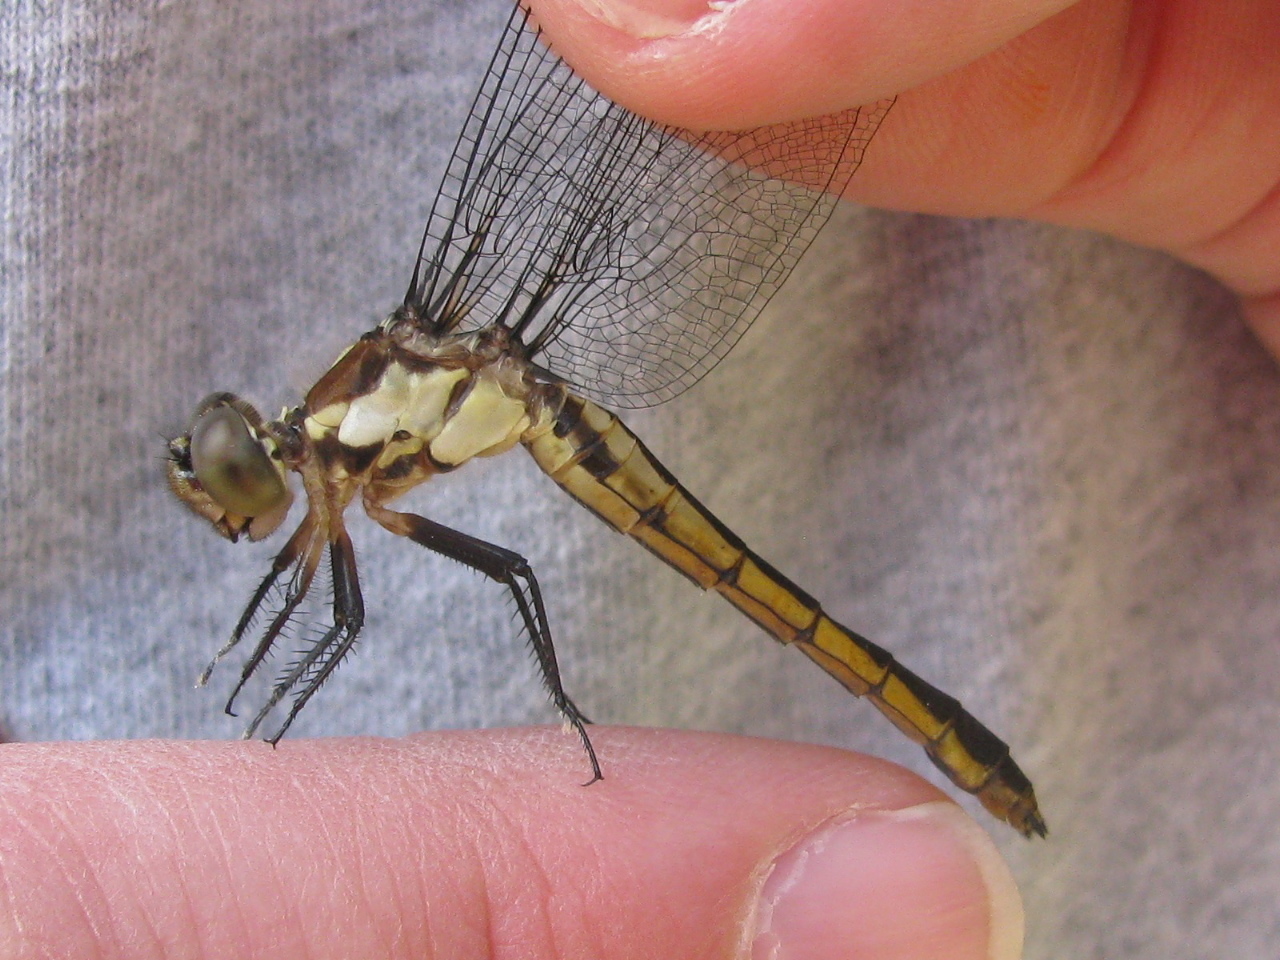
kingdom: Animalia
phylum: Arthropoda
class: Insecta
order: Odonata
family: Libellulidae
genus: Libellula
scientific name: Libellula incesta
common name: Slaty skimmer
